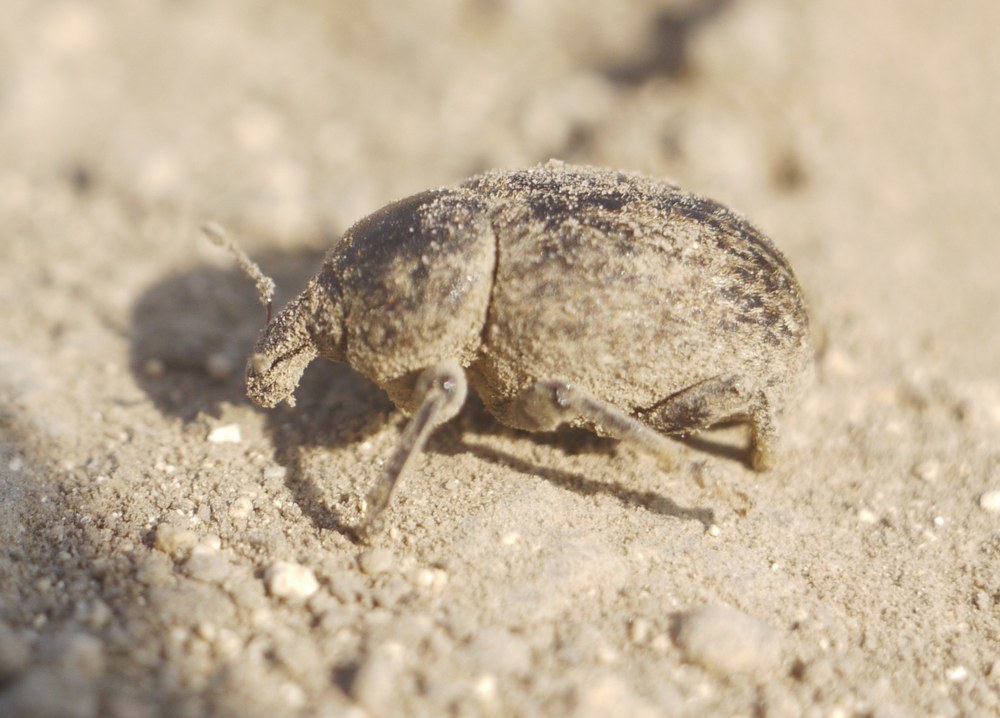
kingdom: Animalia
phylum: Arthropoda
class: Insecta
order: Coleoptera
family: Curculionidae
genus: Hypera
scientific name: Hypera spissa
